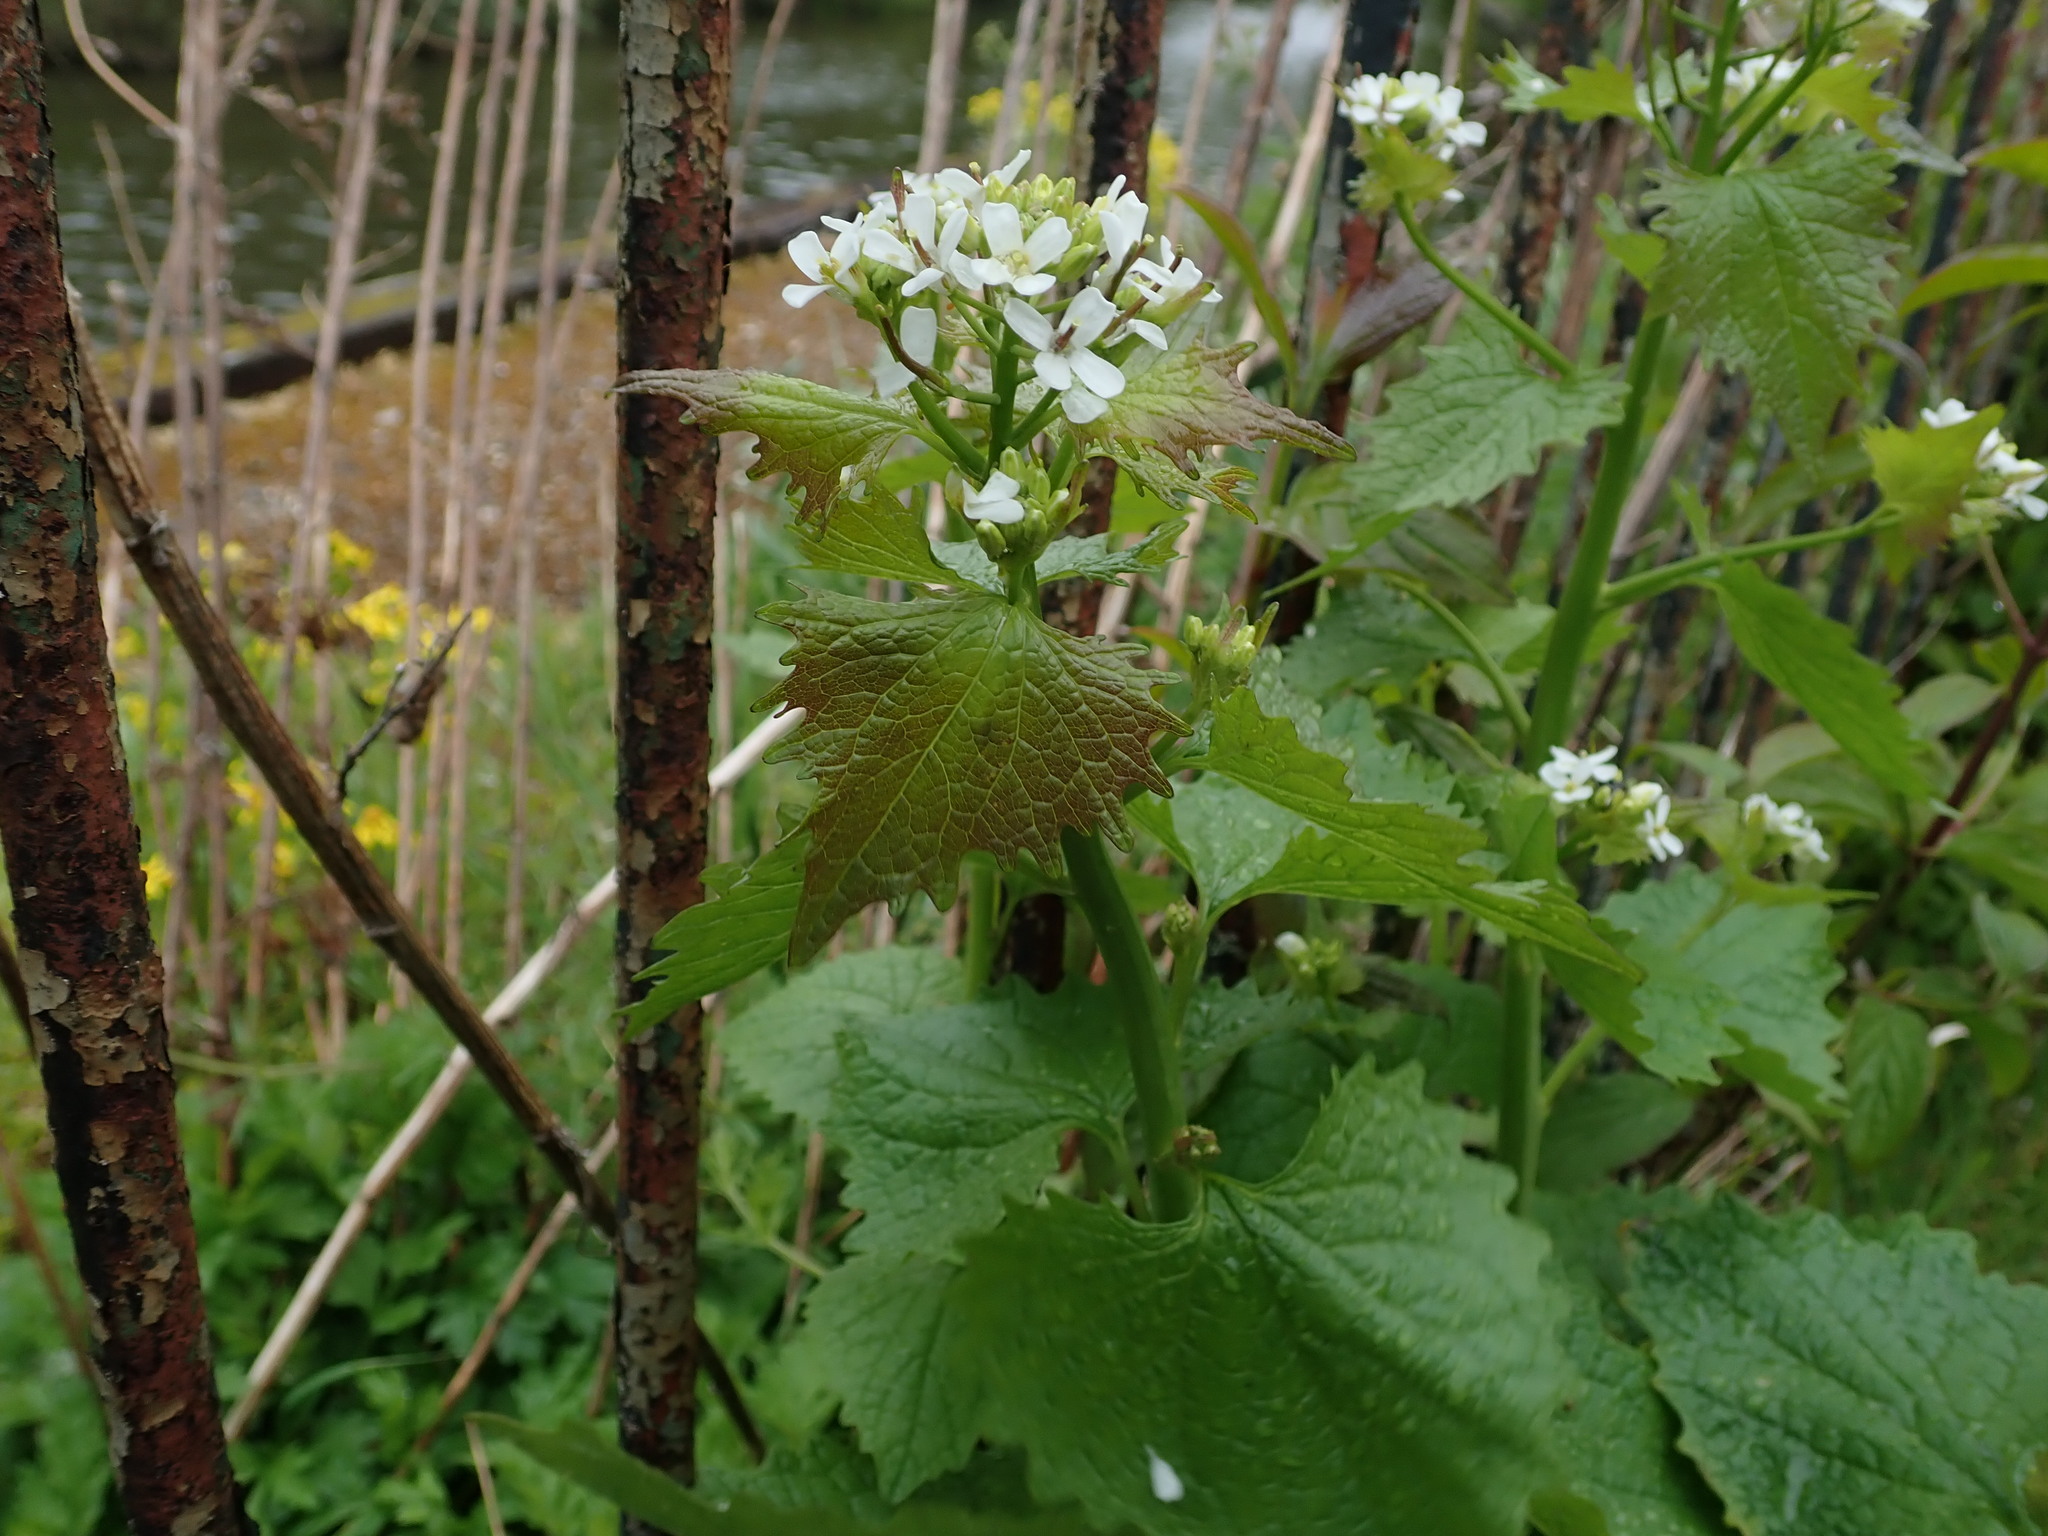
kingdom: Plantae
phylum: Tracheophyta
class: Magnoliopsida
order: Brassicales
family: Brassicaceae
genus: Alliaria
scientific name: Alliaria petiolata
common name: Garlic mustard
